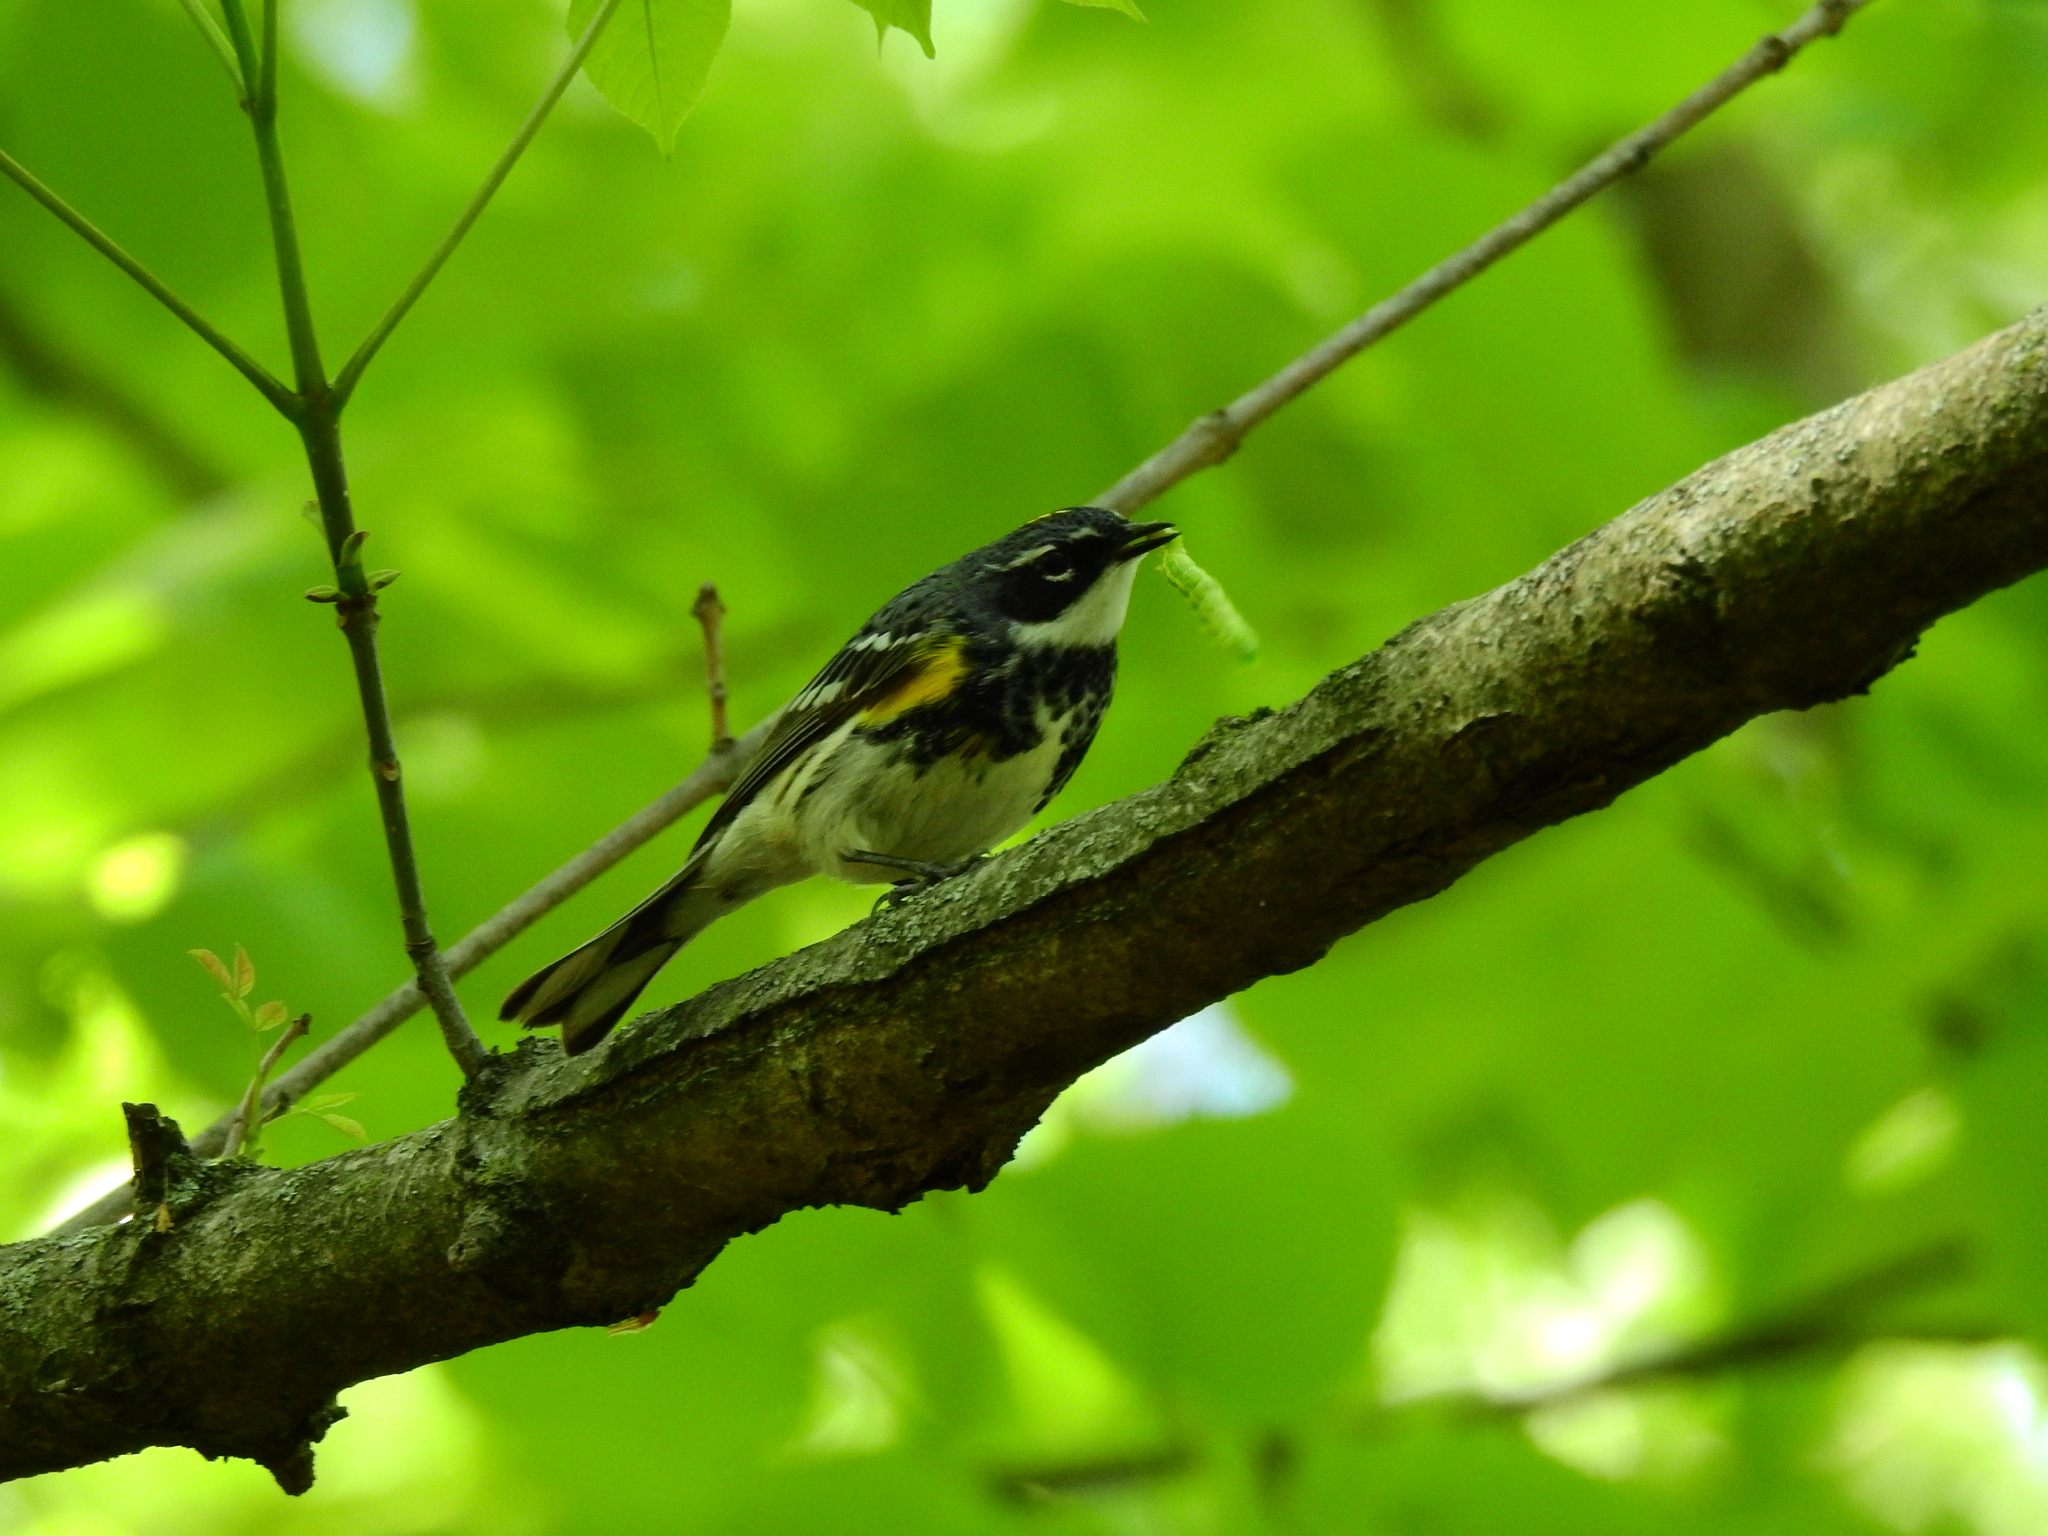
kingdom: Animalia
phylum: Chordata
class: Aves
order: Passeriformes
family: Parulidae
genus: Setophaga
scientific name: Setophaga coronata
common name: Myrtle warbler
